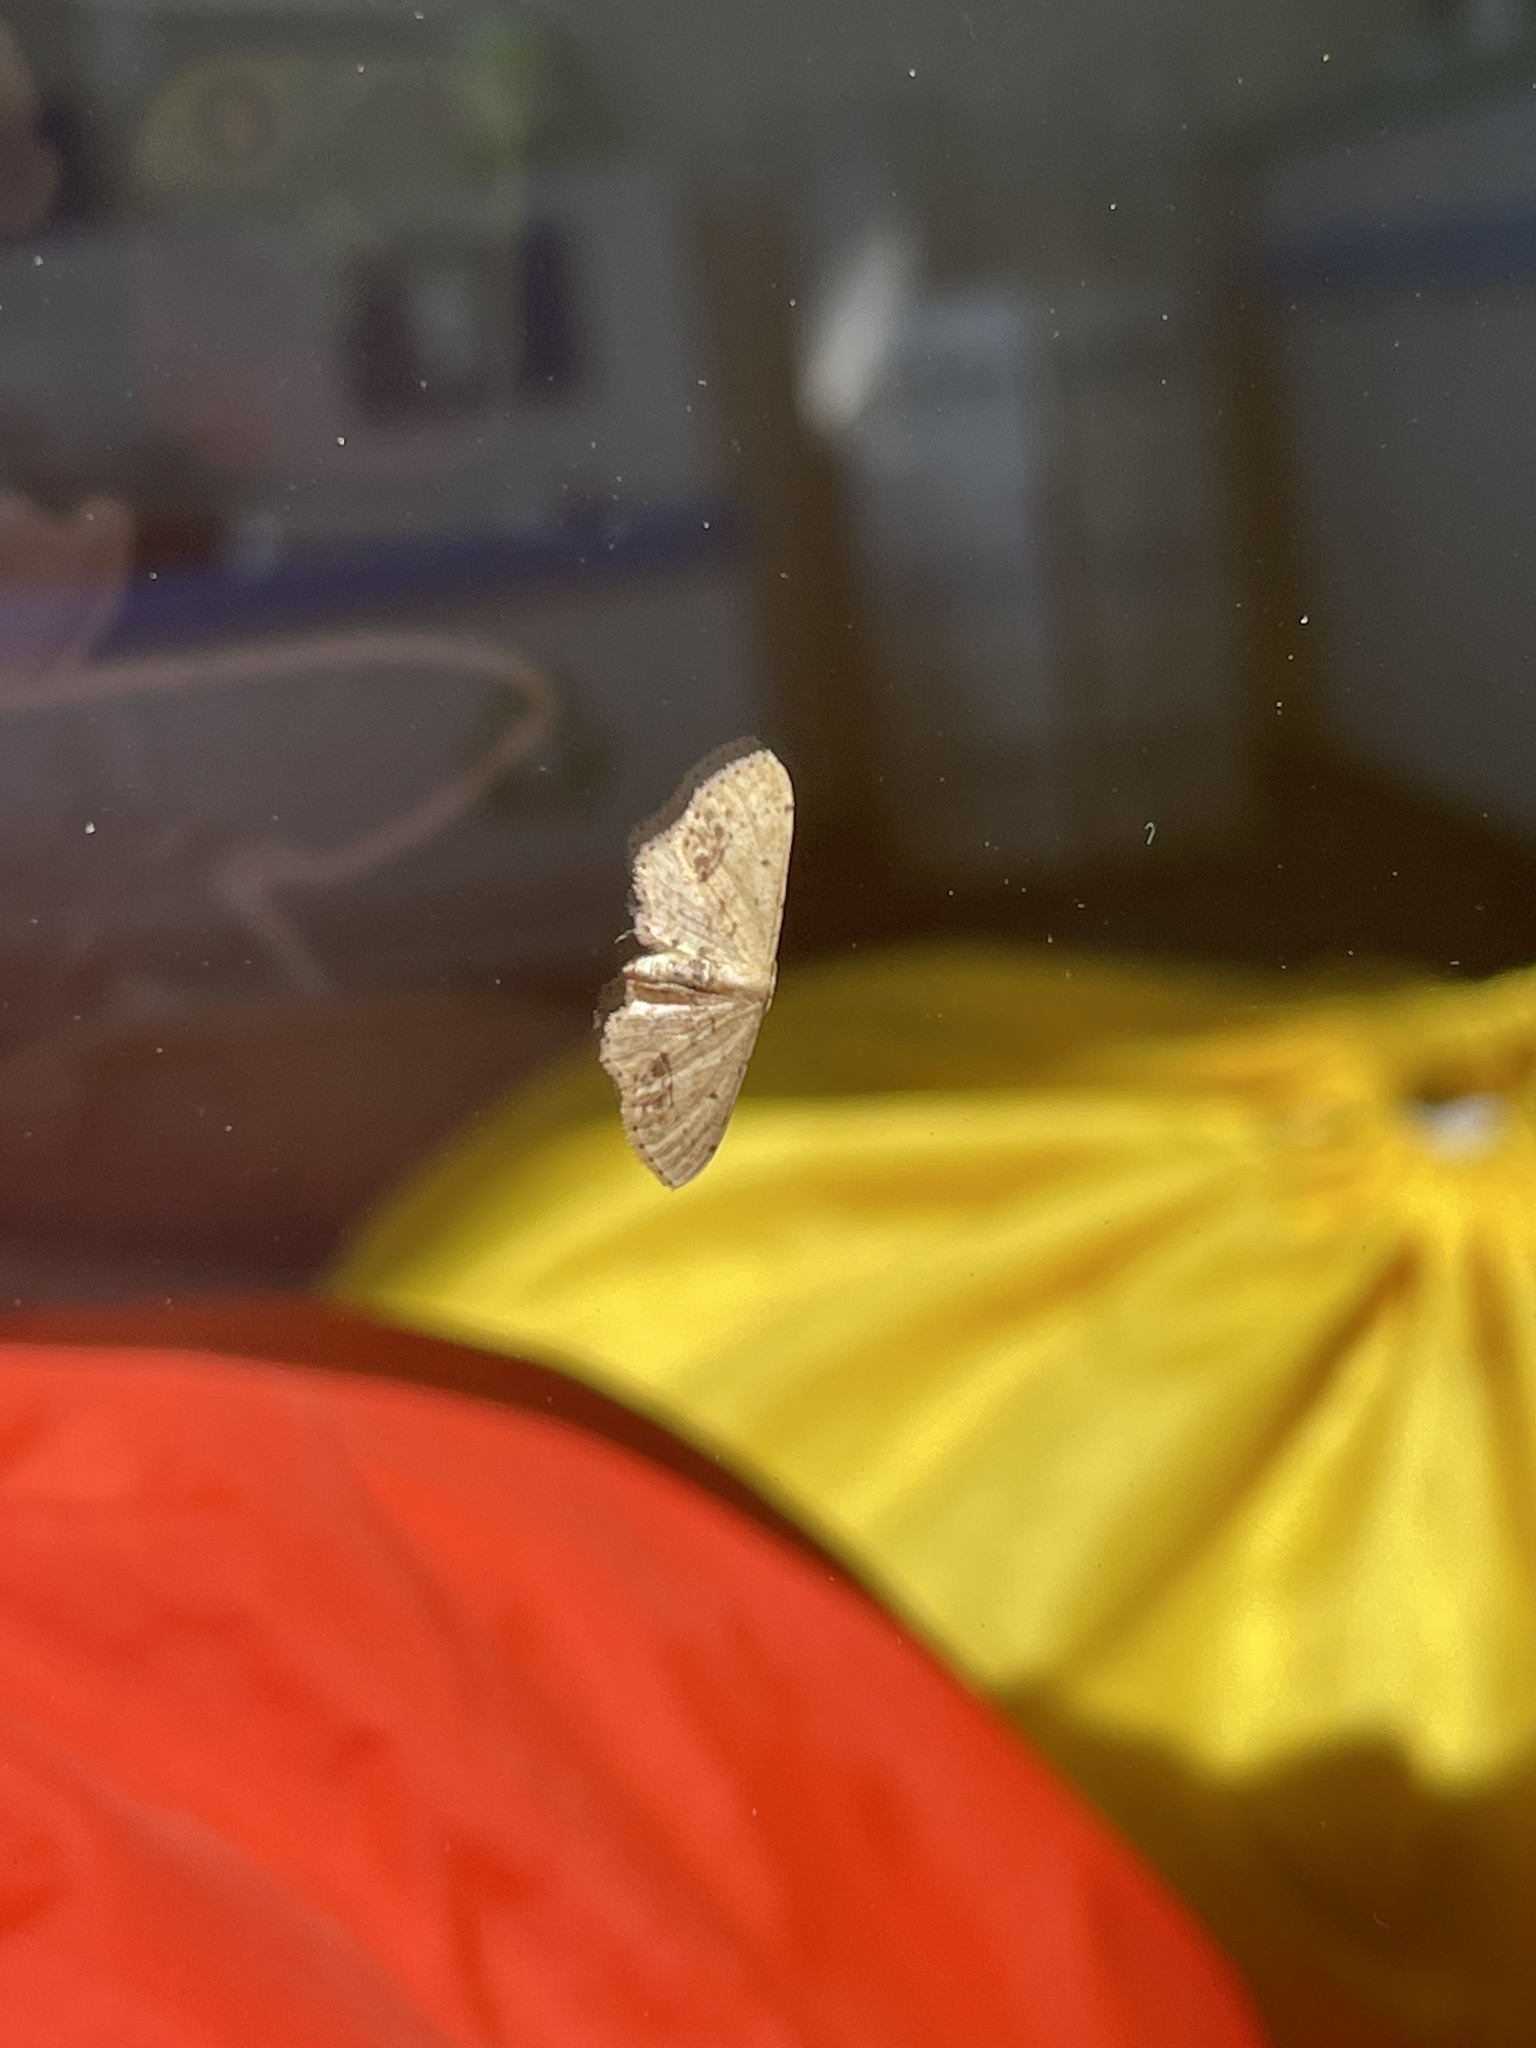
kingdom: Animalia
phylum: Arthropoda
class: Insecta
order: Lepidoptera
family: Geometridae
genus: Idaea
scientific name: Idaea dimidiata
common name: Single-dotted wave
